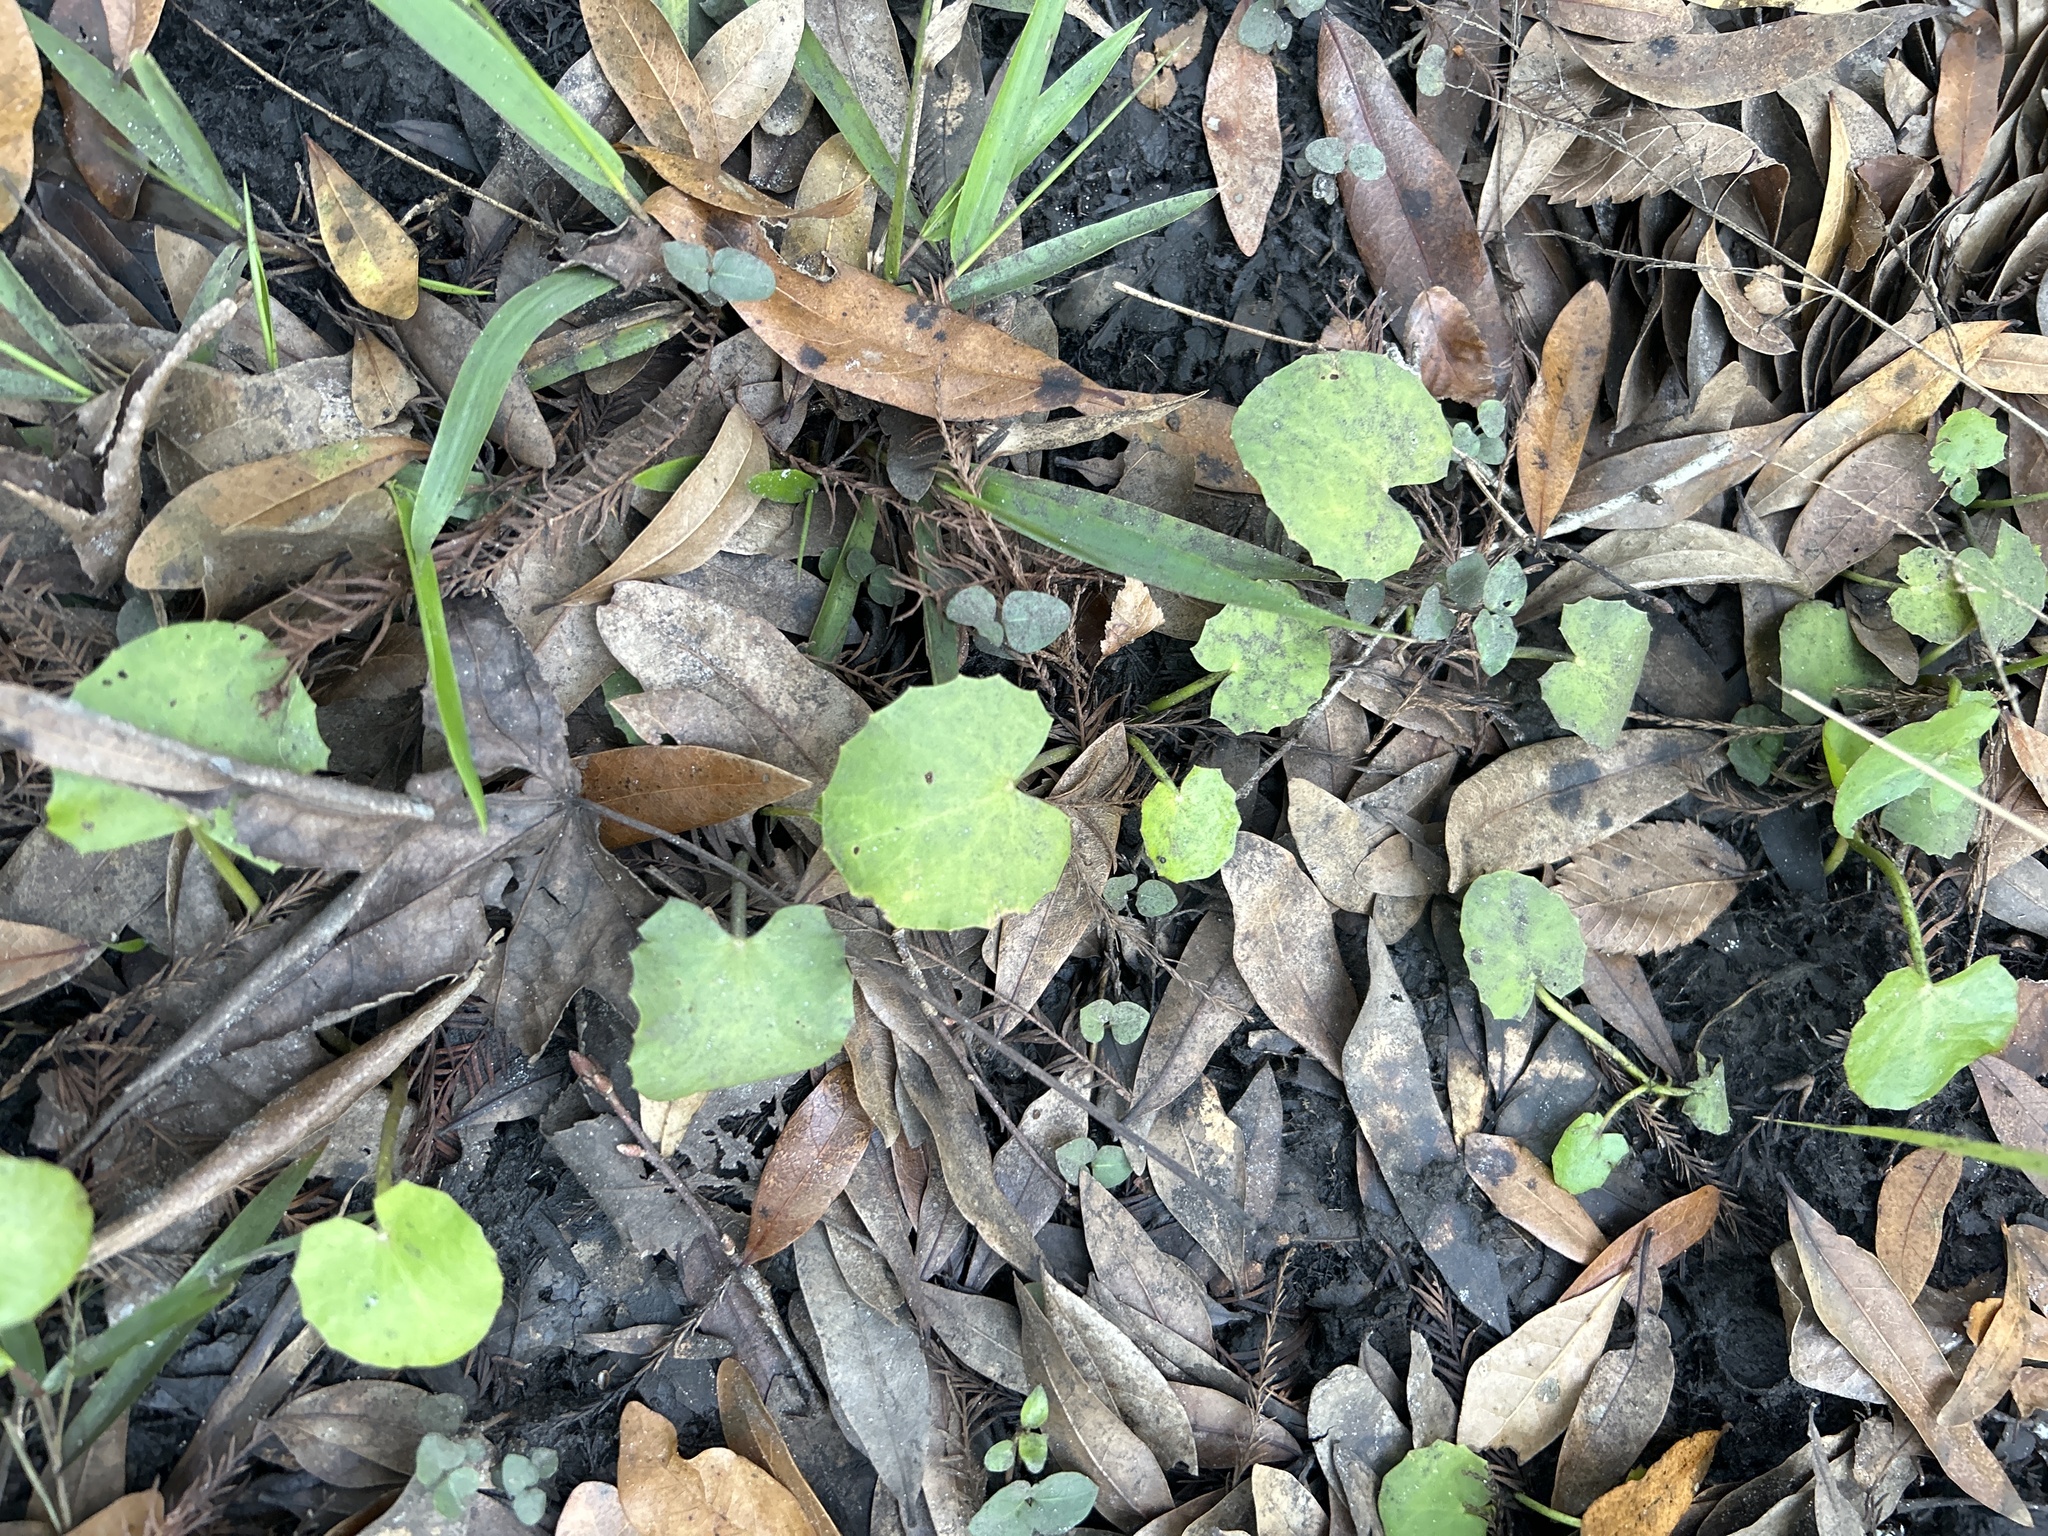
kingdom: Plantae
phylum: Tracheophyta
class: Magnoliopsida
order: Apiales
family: Apiaceae
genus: Centella
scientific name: Centella erecta
